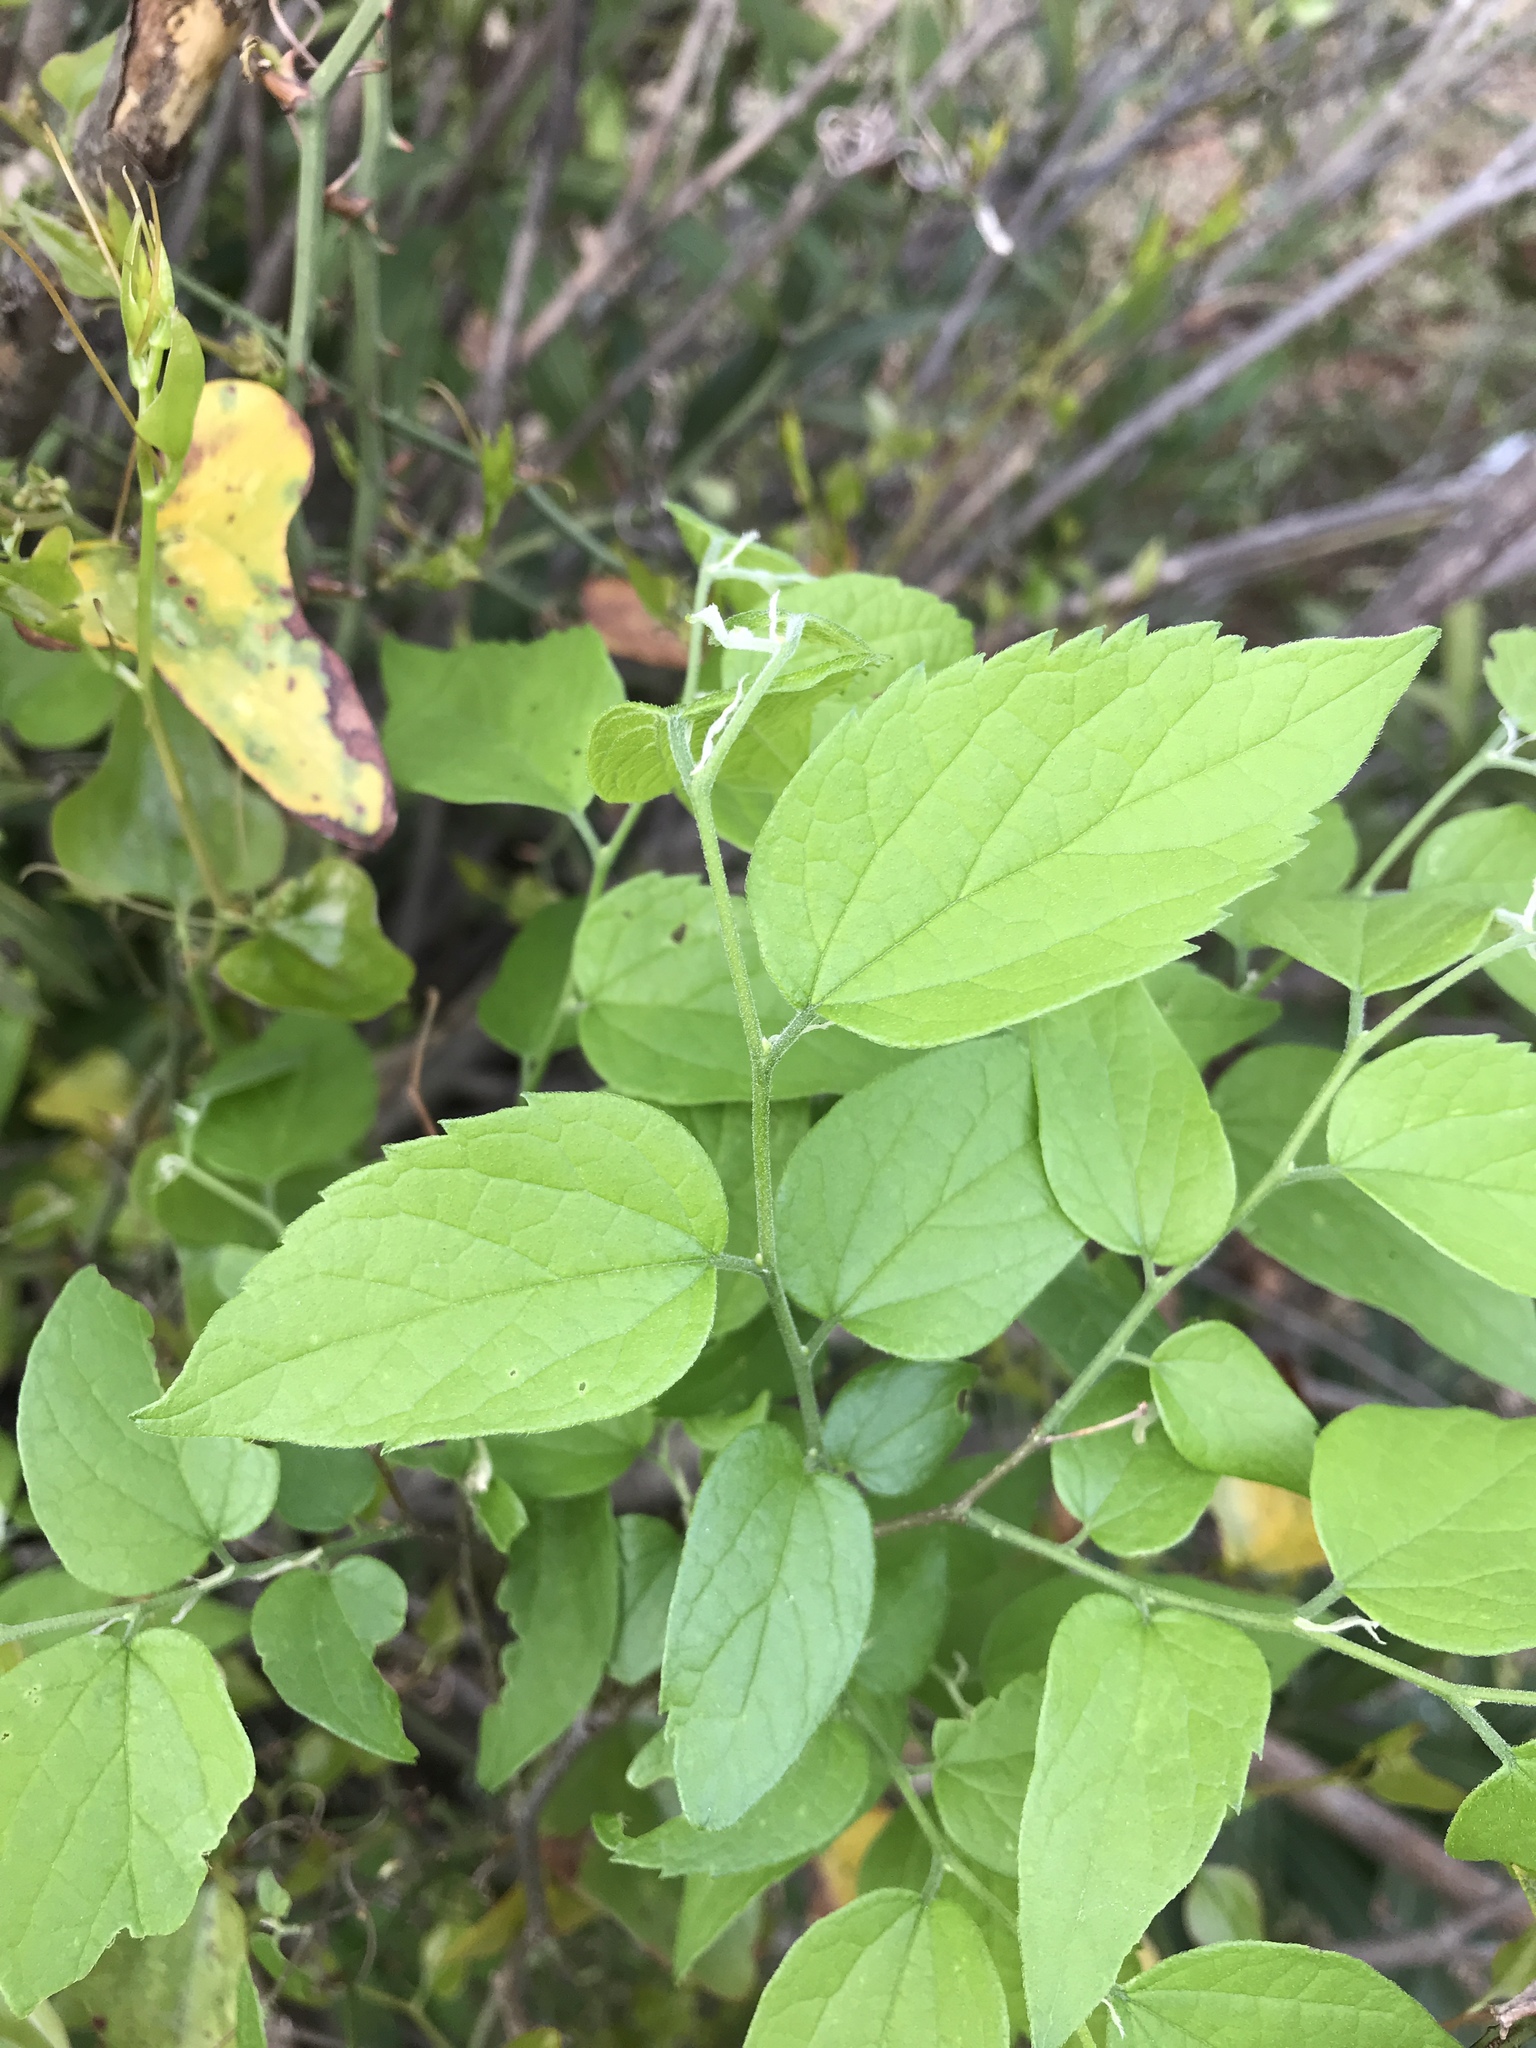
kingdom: Plantae
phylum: Tracheophyta
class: Magnoliopsida
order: Rosales
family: Cannabaceae
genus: Celtis
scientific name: Celtis laevigata
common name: Sugarberry
